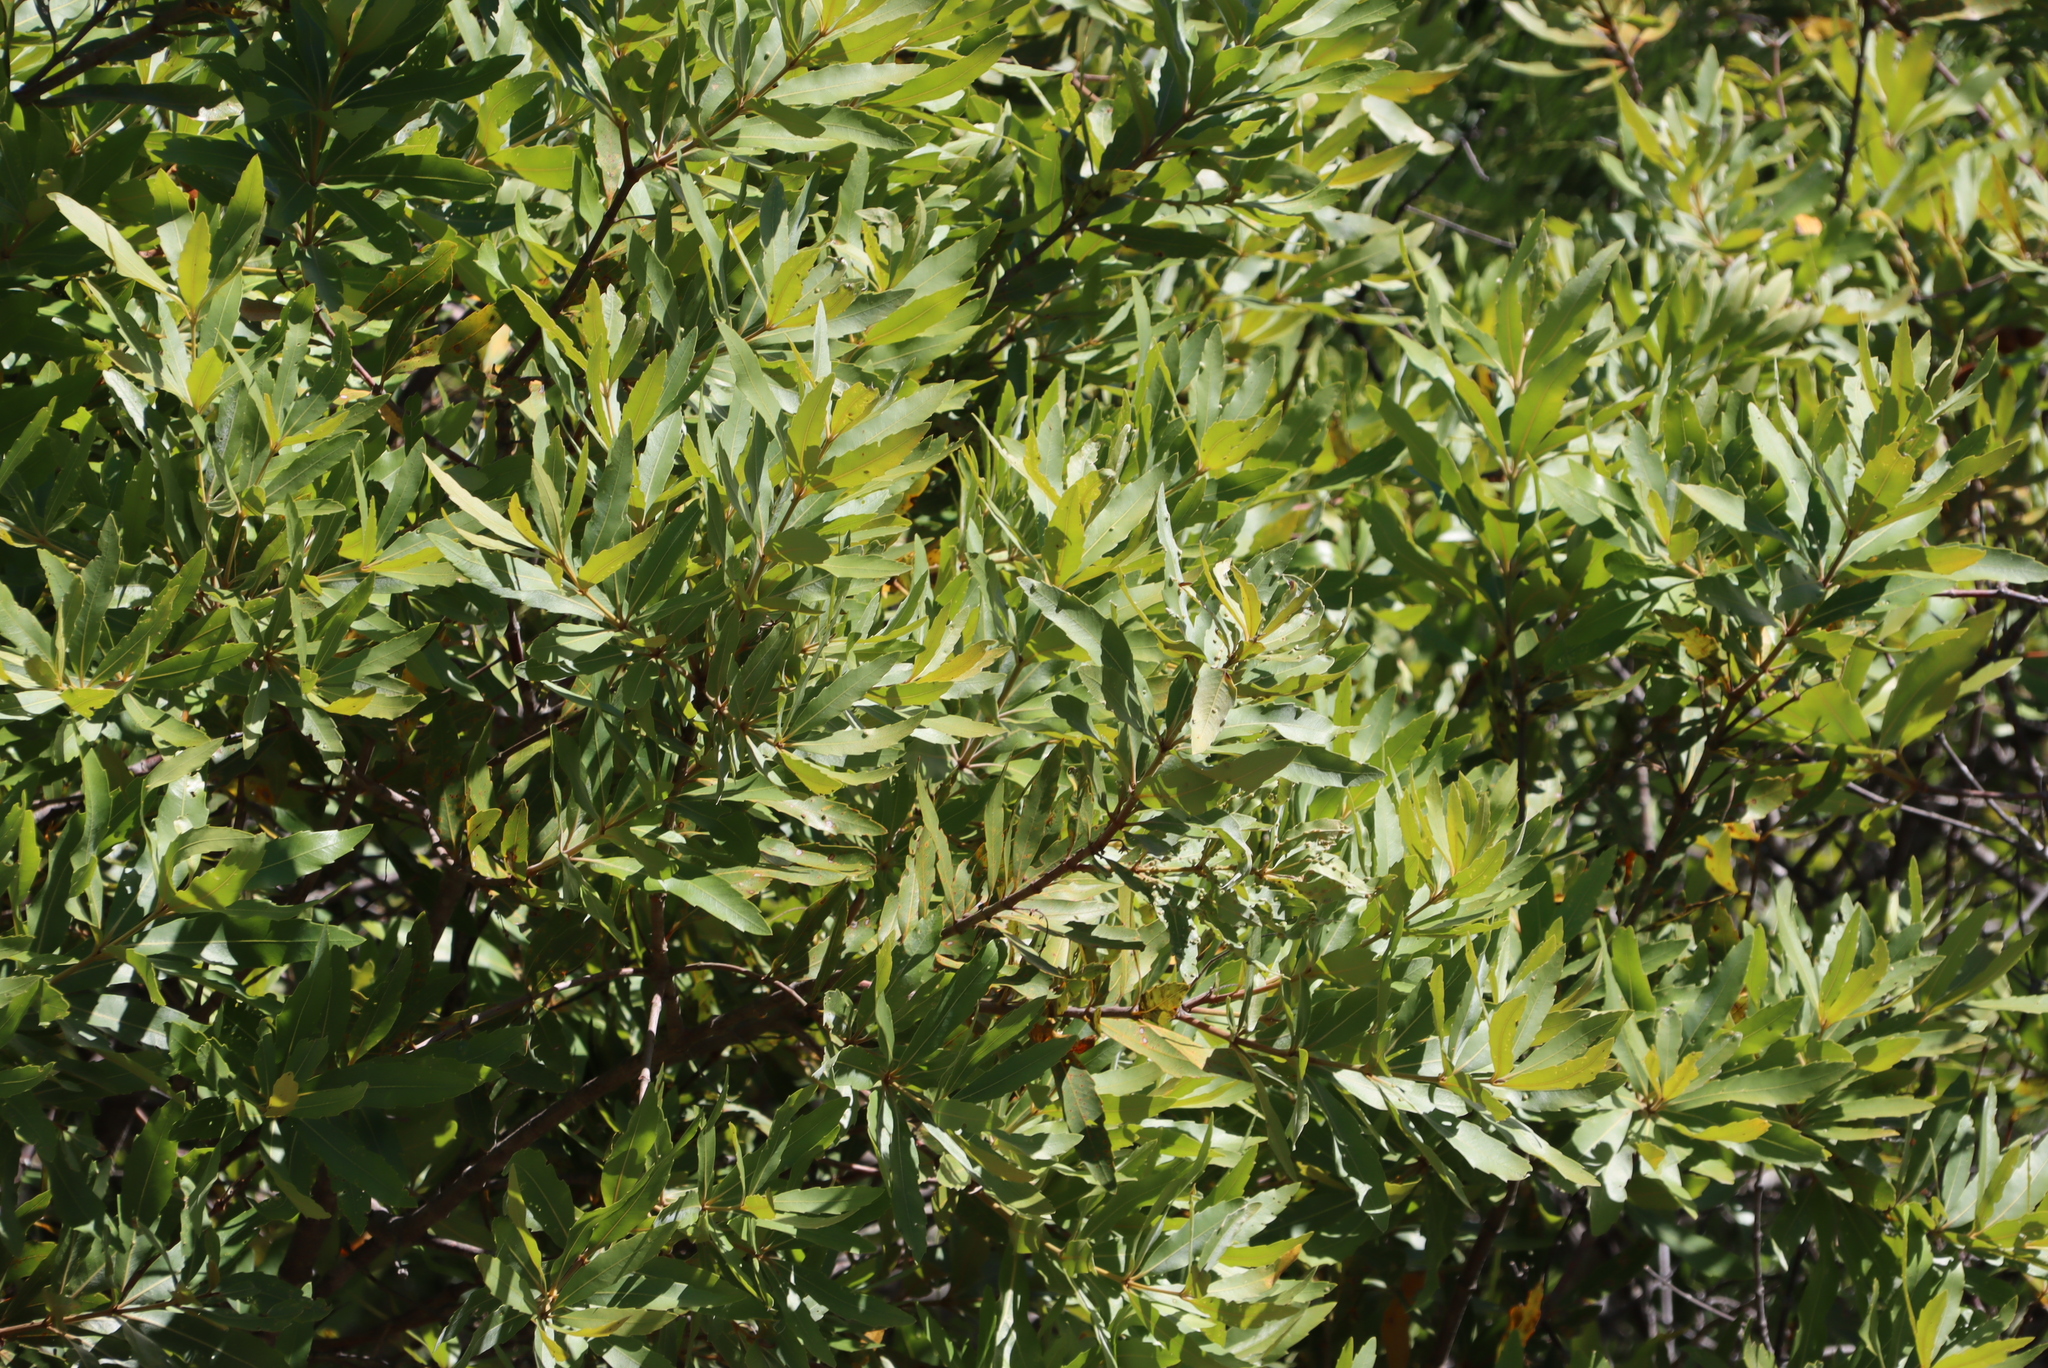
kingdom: Plantae
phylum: Tracheophyta
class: Magnoliopsida
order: Proteales
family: Proteaceae
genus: Brabejum
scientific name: Brabejum stellatifolium
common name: Wild almond
